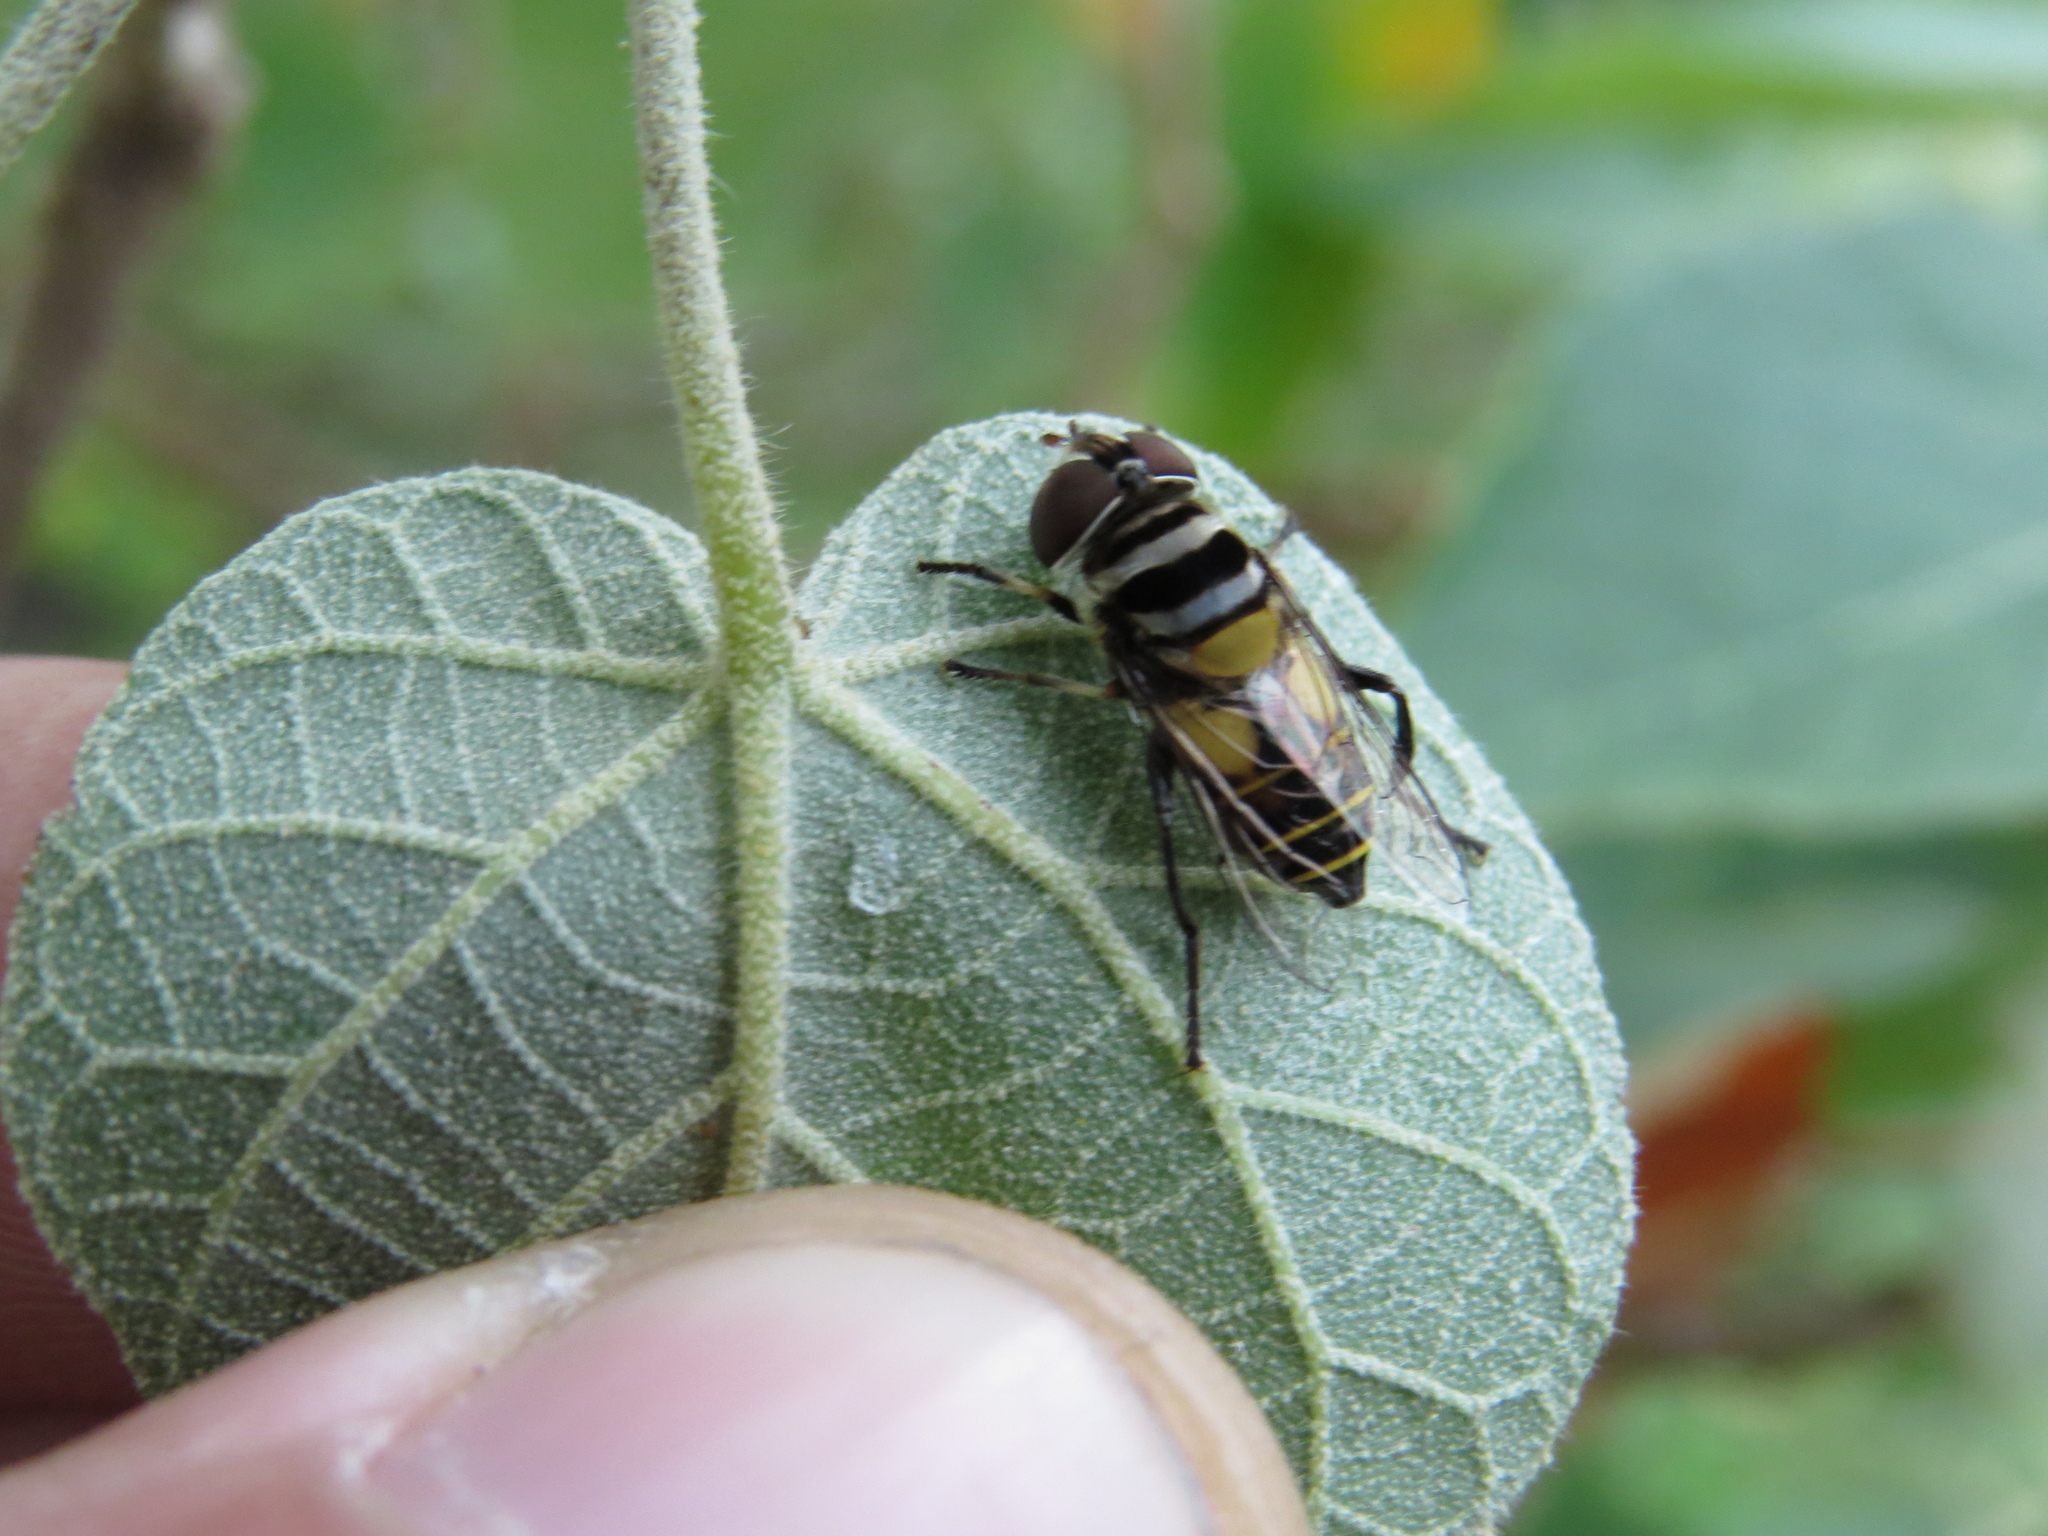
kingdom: Animalia
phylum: Arthropoda
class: Insecta
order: Diptera
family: Syrphidae
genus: Palpada
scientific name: Palpada
